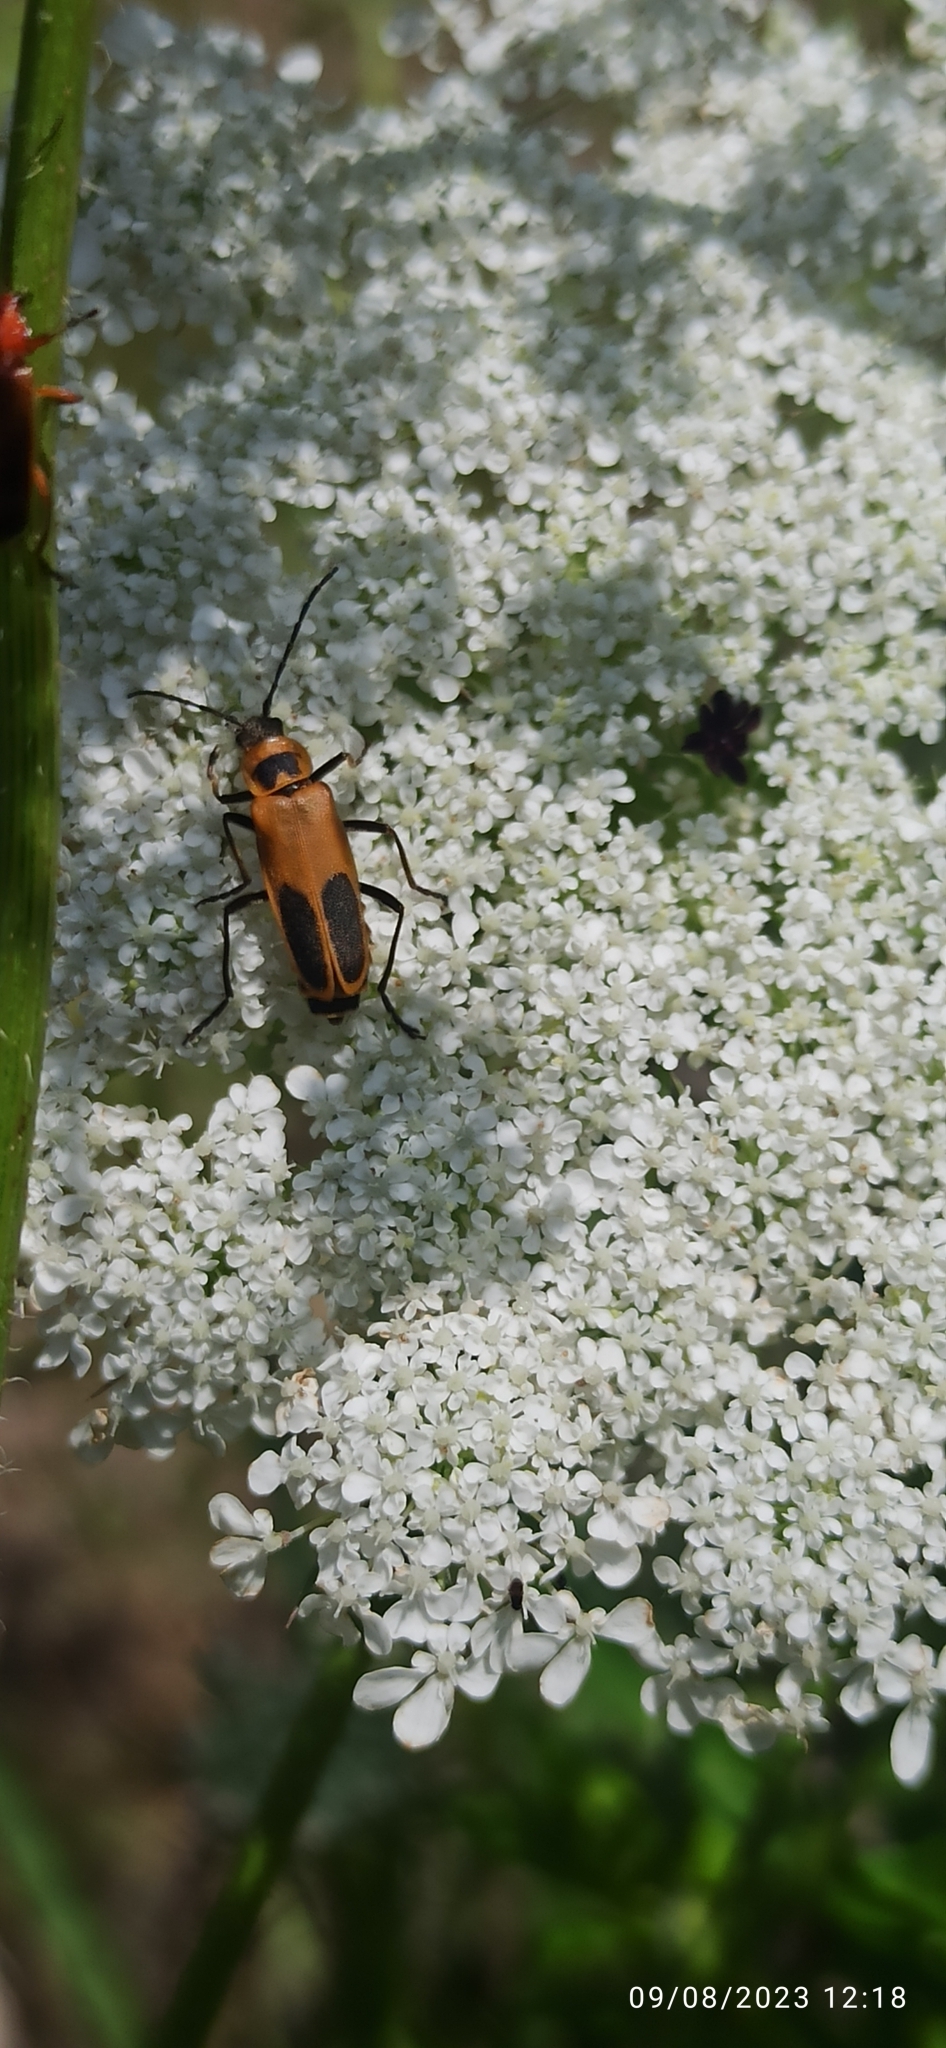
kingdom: Animalia
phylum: Arthropoda
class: Insecta
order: Coleoptera
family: Cantharidae
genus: Chauliognathus
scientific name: Chauliognathus pensylvanicus
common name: Goldenrod soldier beetle
